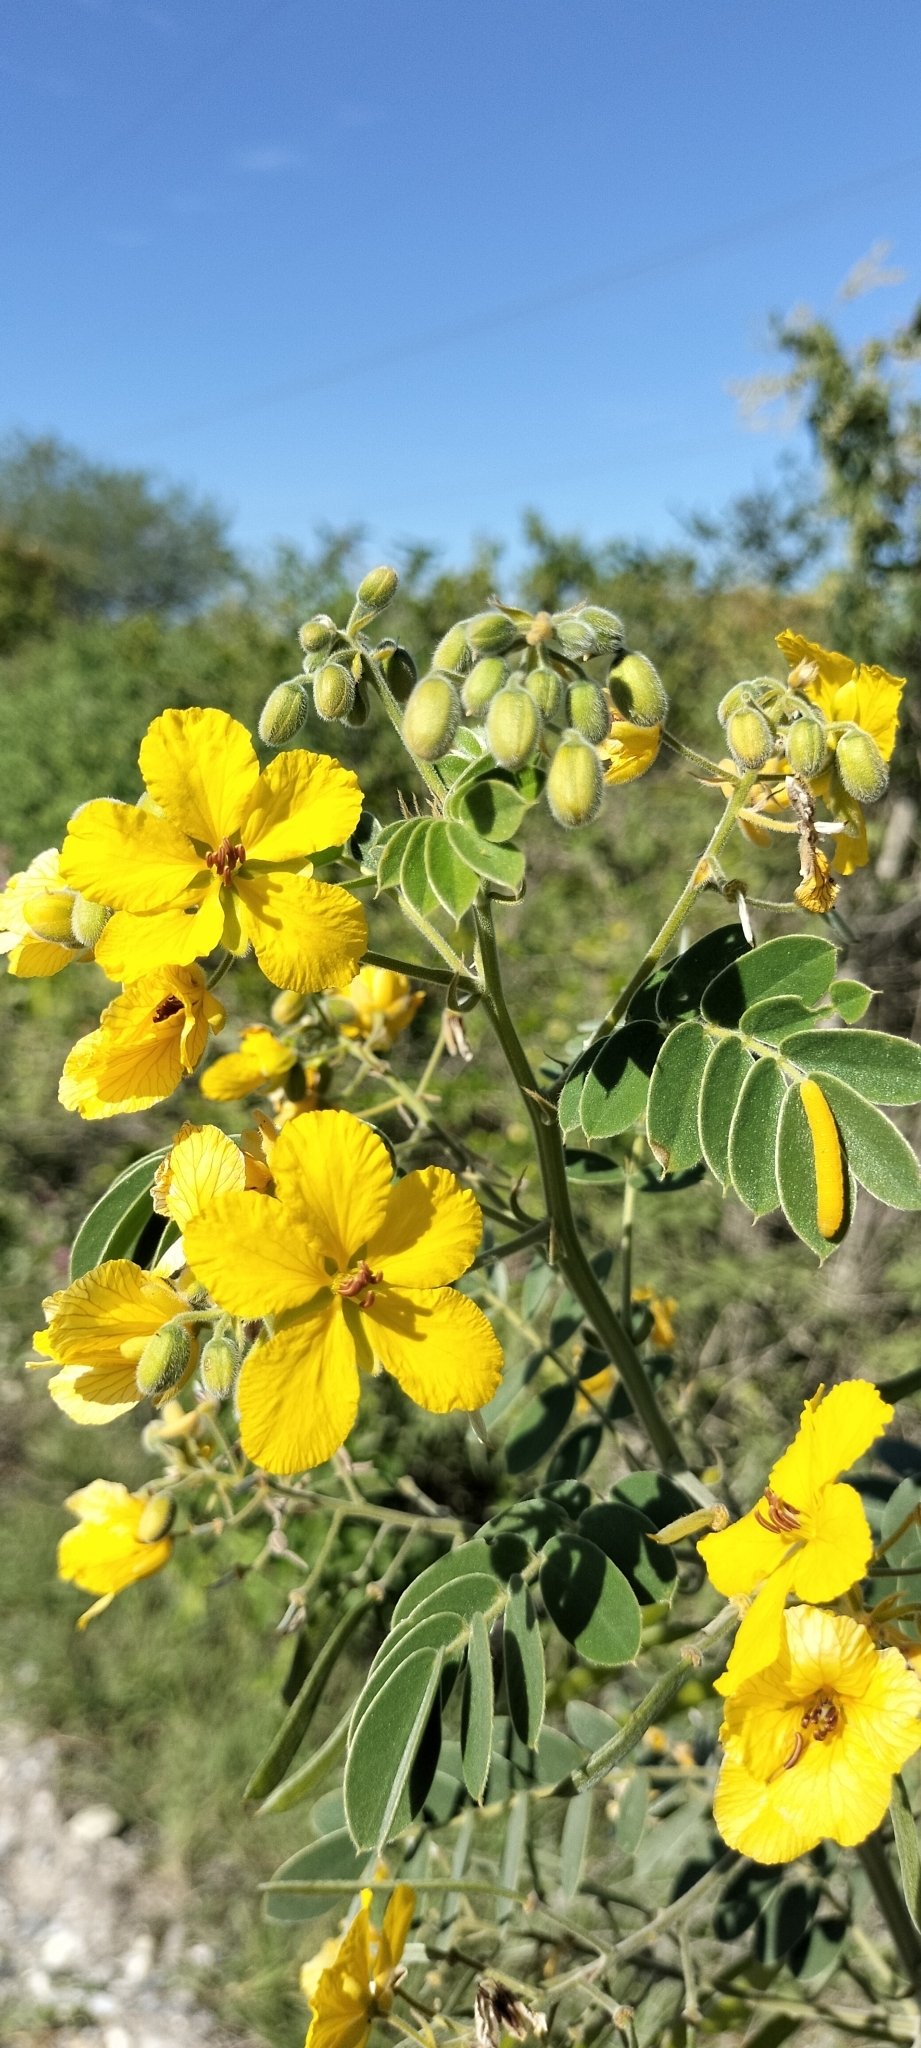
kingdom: Plantae
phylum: Tracheophyta
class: Magnoliopsida
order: Fabales
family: Fabaceae
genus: Senna
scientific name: Senna lindheimeriana
